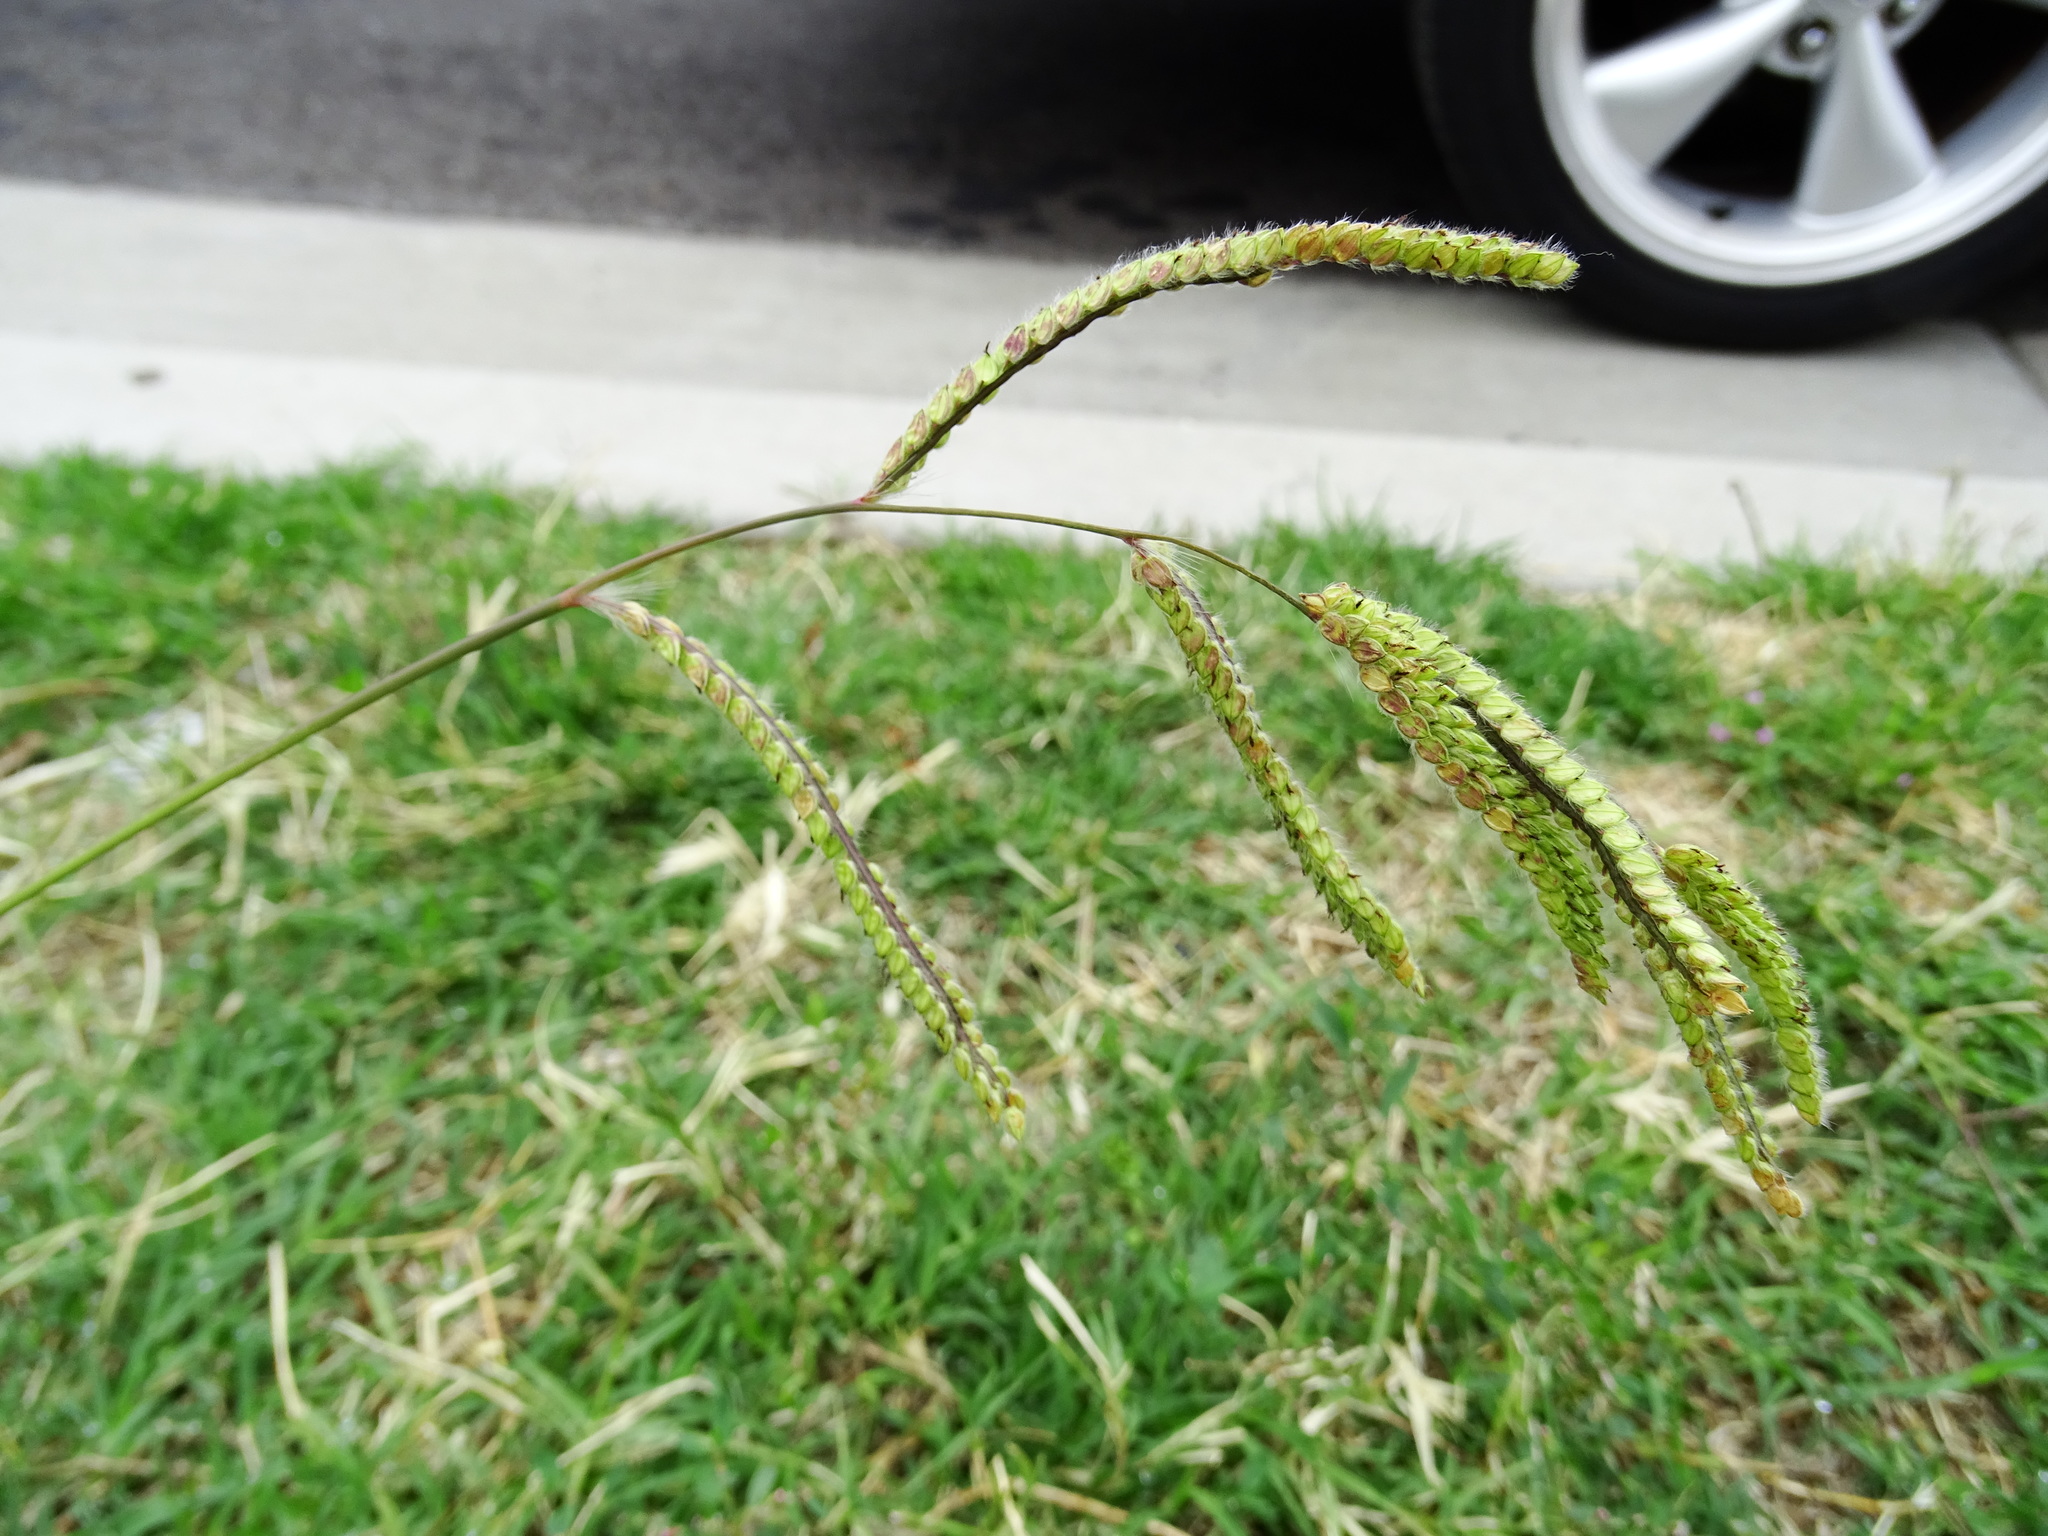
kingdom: Plantae
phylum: Tracheophyta
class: Liliopsida
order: Poales
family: Poaceae
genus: Paspalum
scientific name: Paspalum dilatatum
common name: Dallisgrass
